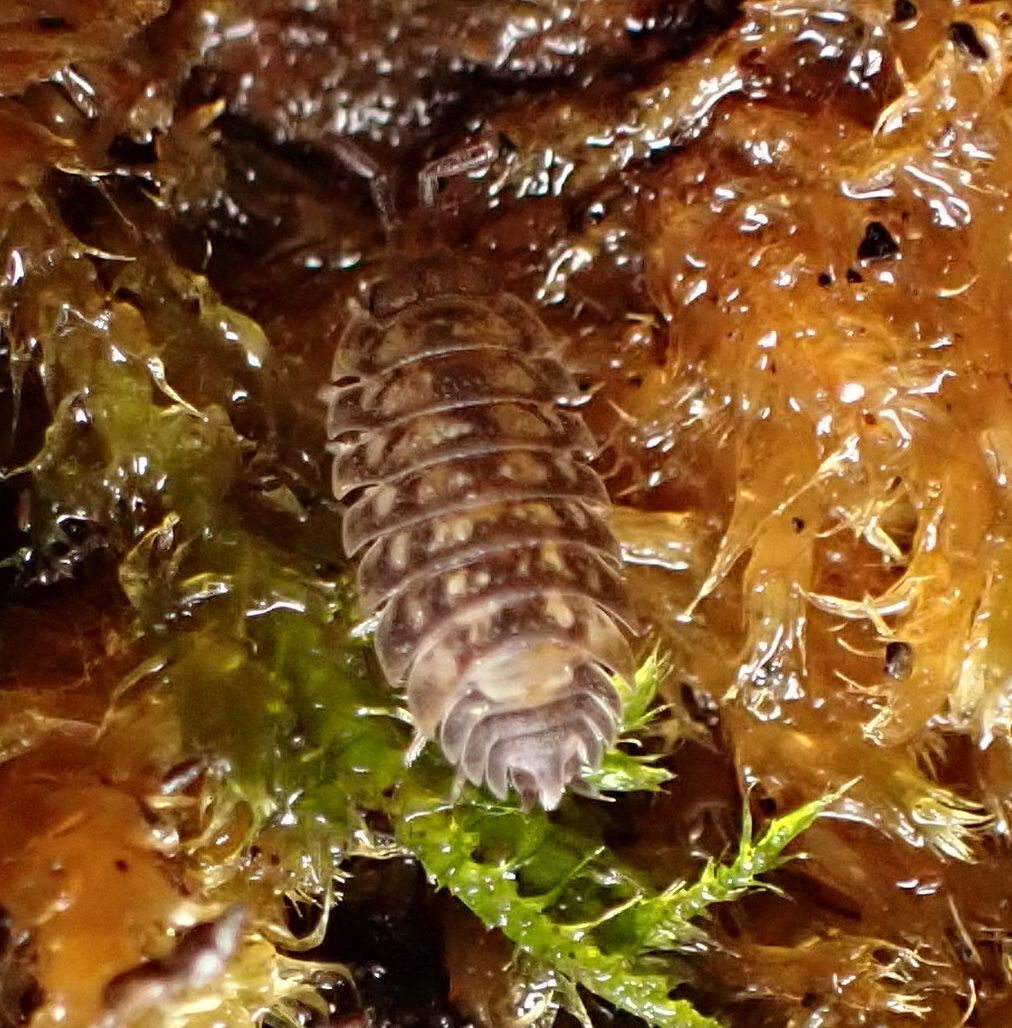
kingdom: Animalia
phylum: Arthropoda
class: Malacostraca
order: Isopoda
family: Oniscidae
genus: Oniscus
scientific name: Oniscus asellus
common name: Common shiny woodlouse
